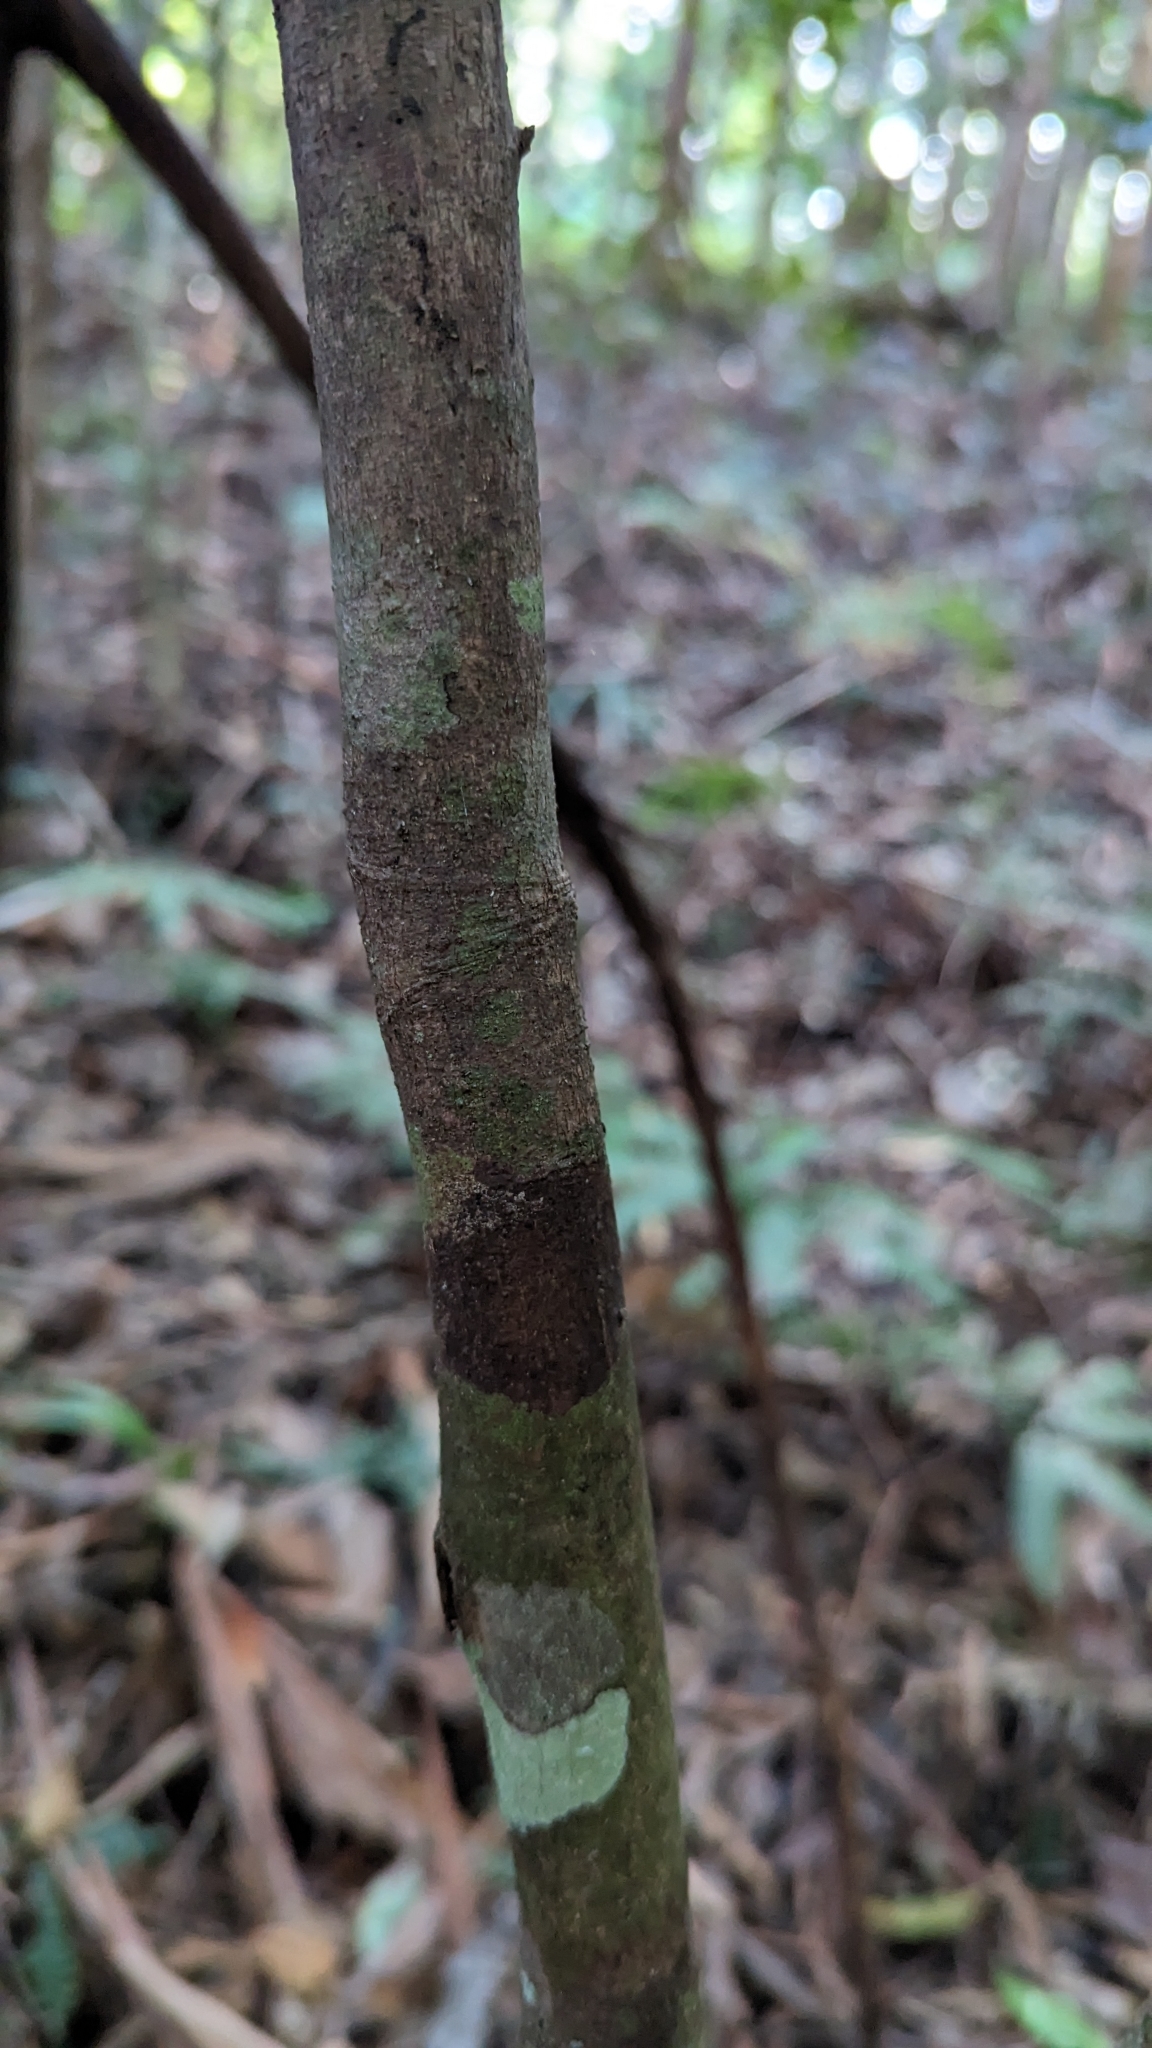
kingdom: Plantae
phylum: Tracheophyta
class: Magnoliopsida
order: Laurales
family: Lauraceae
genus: Cryptocarya
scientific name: Cryptocarya glaucescens
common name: Bolly-laurel
